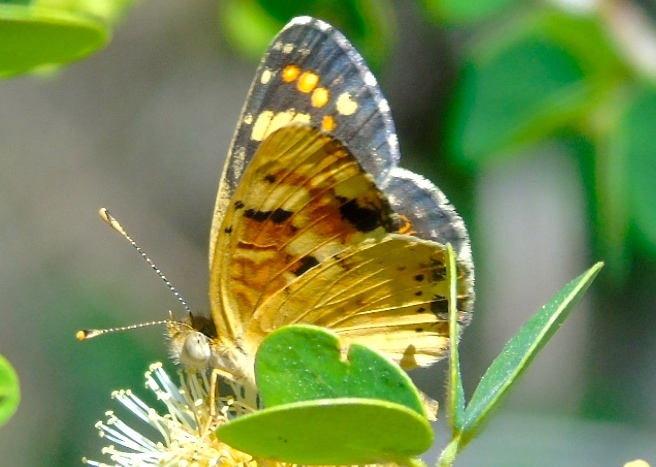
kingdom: Animalia
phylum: Arthropoda
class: Insecta
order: Lepidoptera
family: Nymphalidae
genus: Phyciodes
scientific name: Phyciodes picta
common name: Painted crescent
